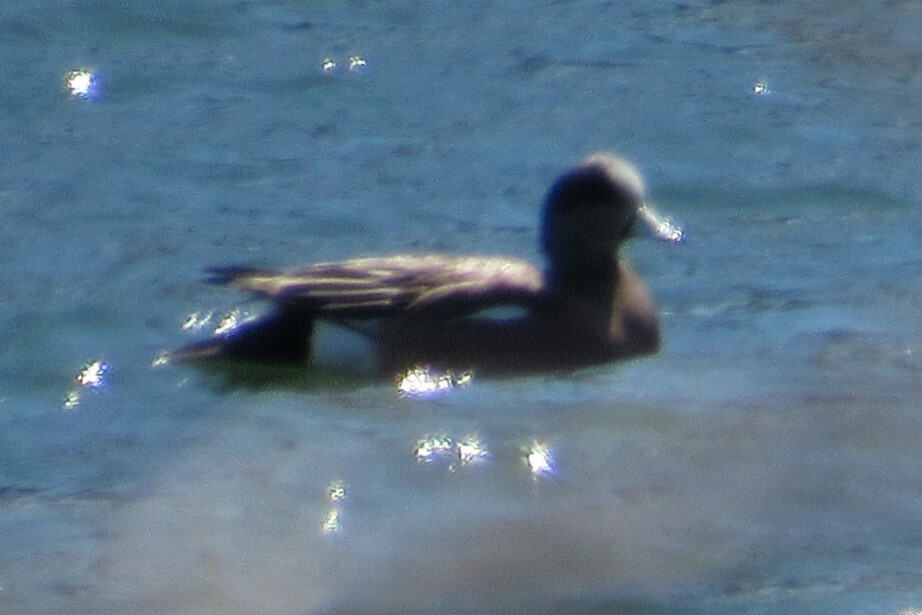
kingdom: Animalia
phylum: Chordata
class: Aves
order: Anseriformes
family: Anatidae
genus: Mareca
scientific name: Mareca americana
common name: American wigeon
